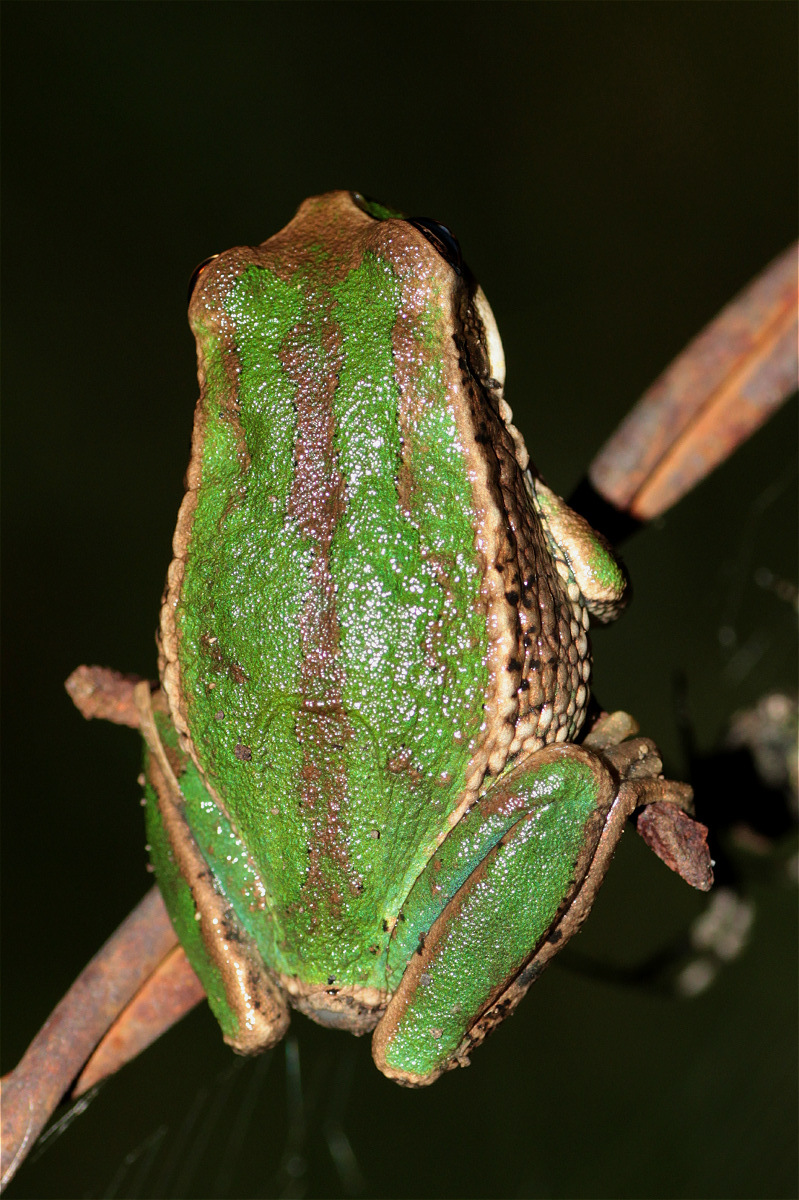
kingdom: Animalia
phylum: Chordata
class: Amphibia
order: Anura
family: Hemiphractidae
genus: Gastrotheca
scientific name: Gastrotheca cuencana
